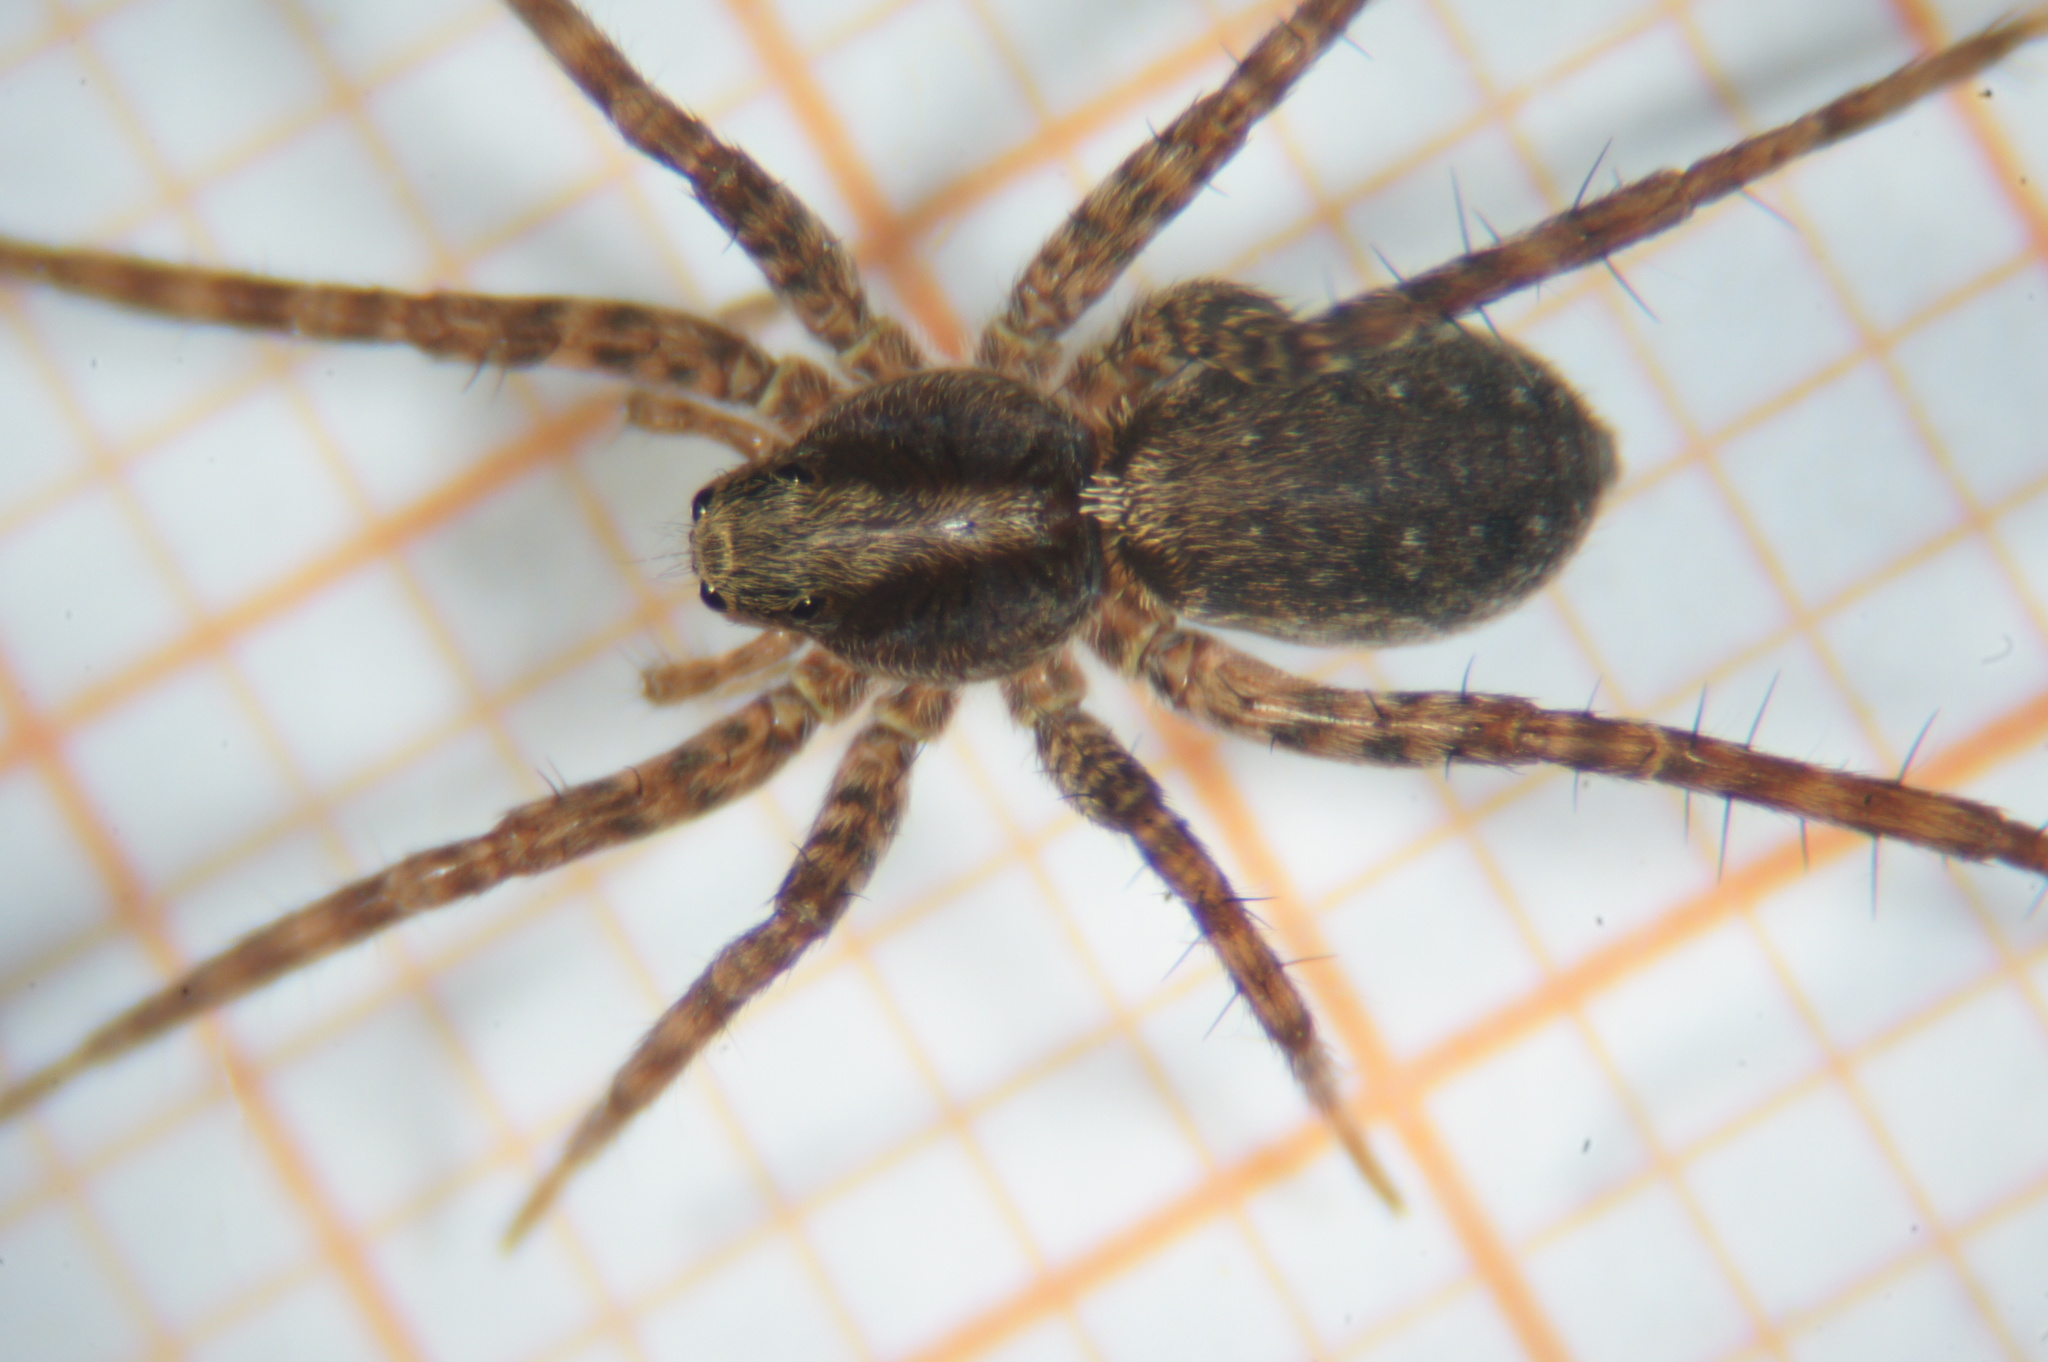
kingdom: Animalia
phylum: Arthropoda
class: Arachnida
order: Araneae
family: Lycosidae
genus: Pardosa
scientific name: Pardosa
